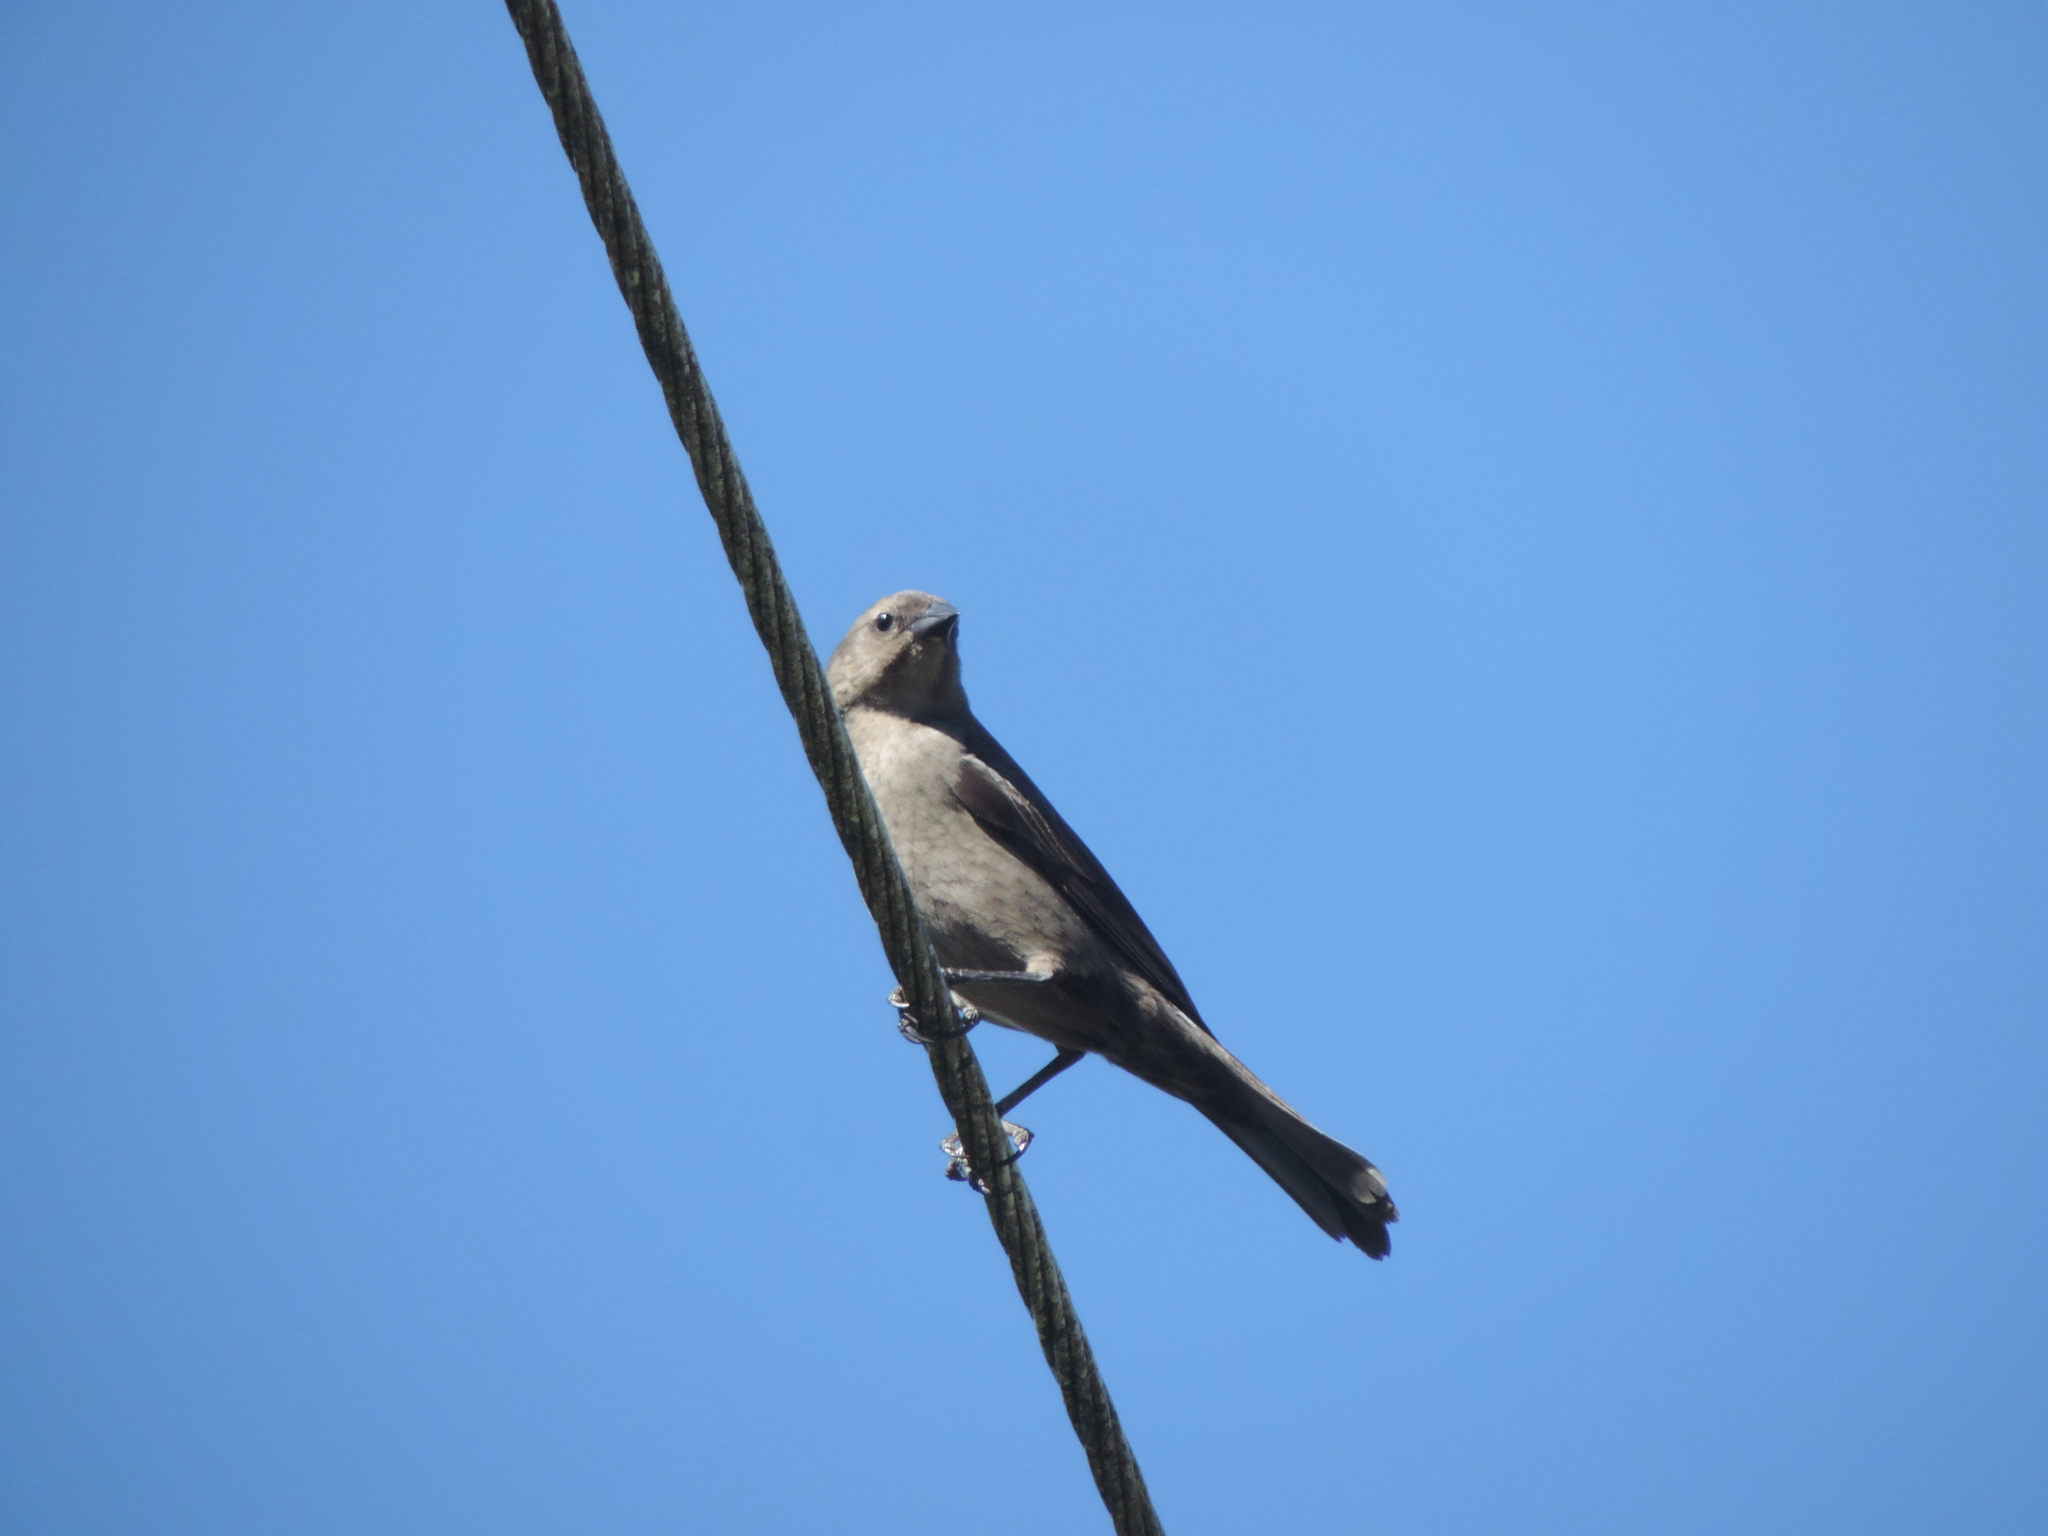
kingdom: Animalia
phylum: Chordata
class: Aves
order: Passeriformes
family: Icteridae
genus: Molothrus
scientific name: Molothrus bonariensis
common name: Shiny cowbird
